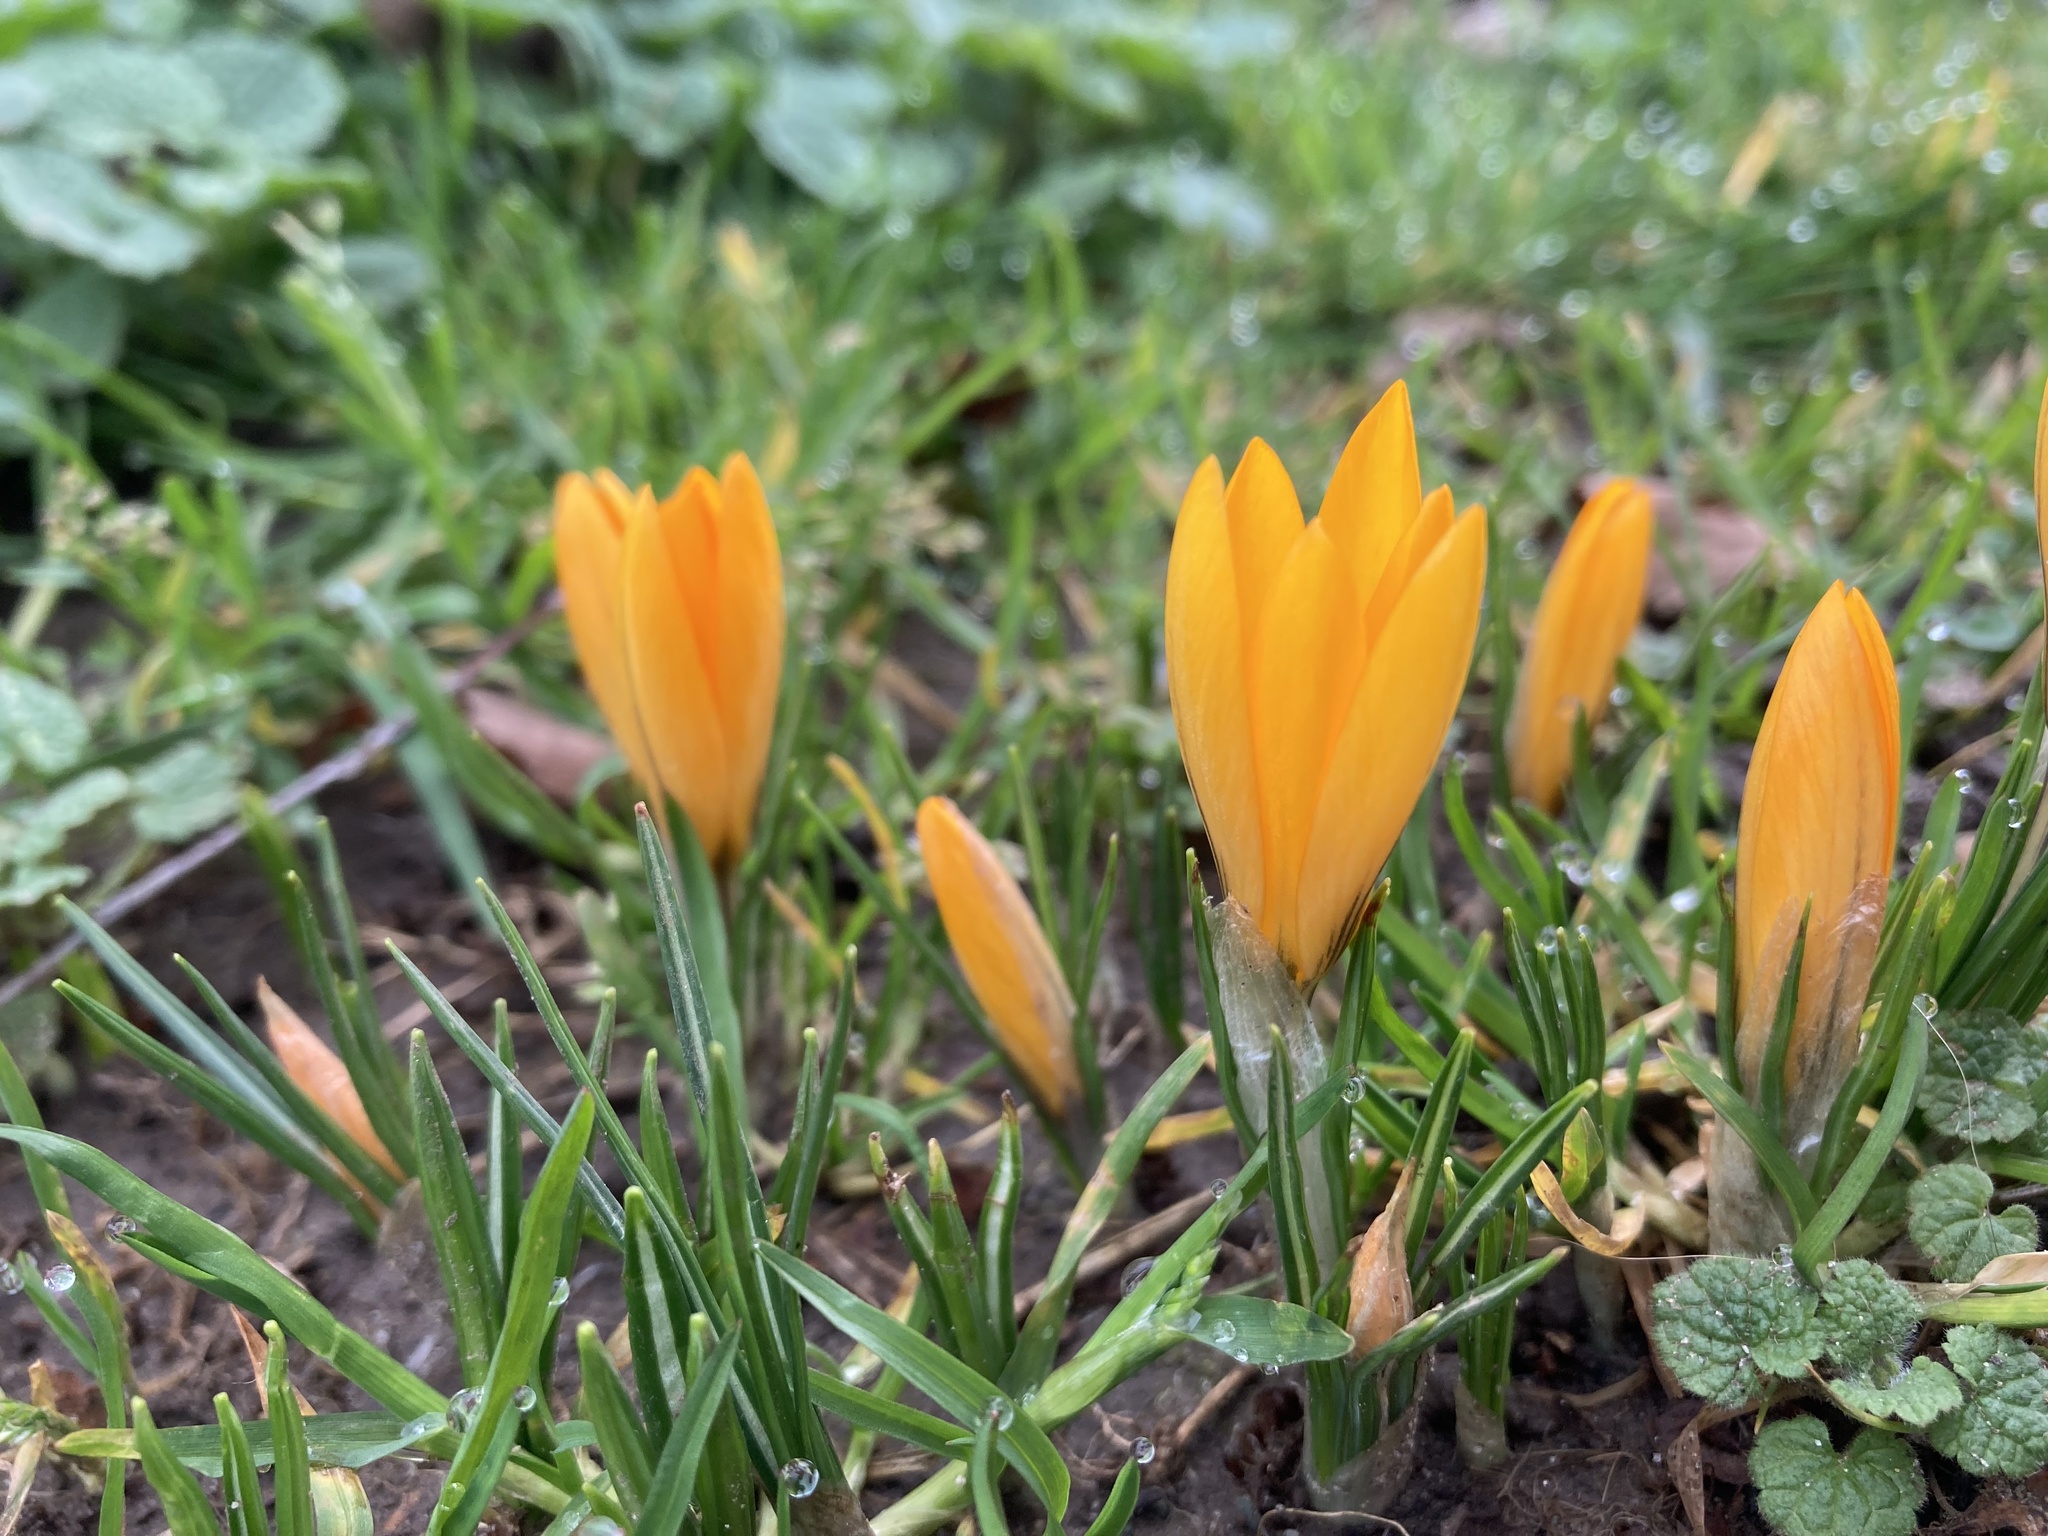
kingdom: Plantae
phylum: Tracheophyta
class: Liliopsida
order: Asparagales
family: Iridaceae
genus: Crocus
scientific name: Crocus luteus
